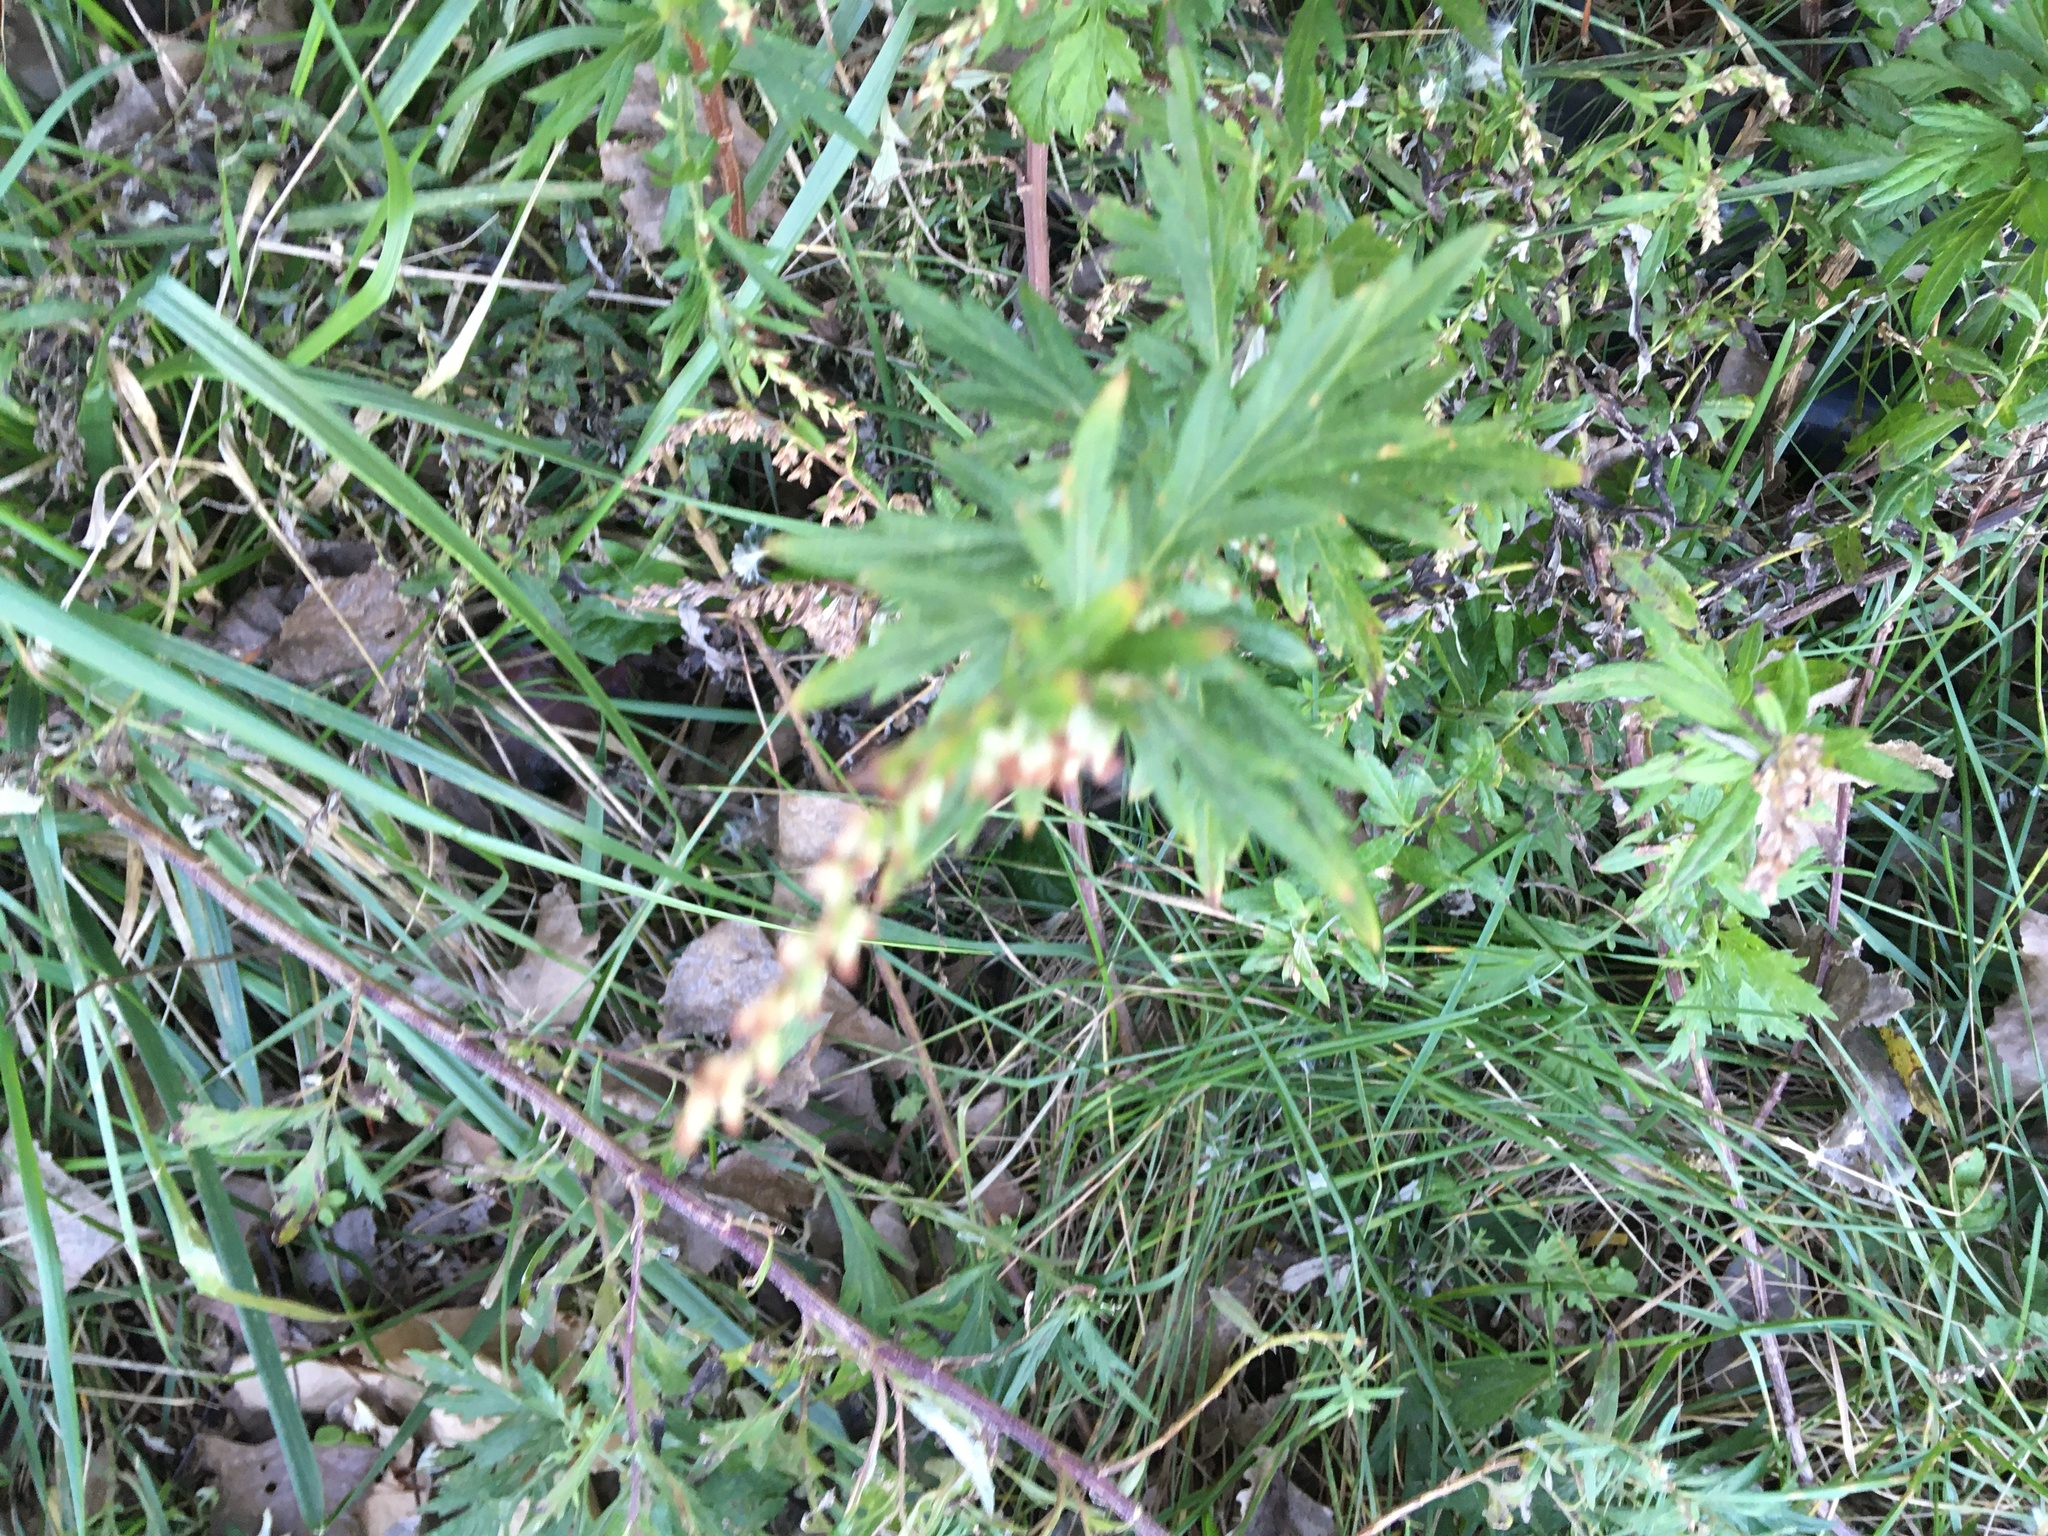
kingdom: Plantae
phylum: Tracheophyta
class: Magnoliopsida
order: Asterales
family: Asteraceae
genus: Artemisia
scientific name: Artemisia vulgaris
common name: Mugwort
